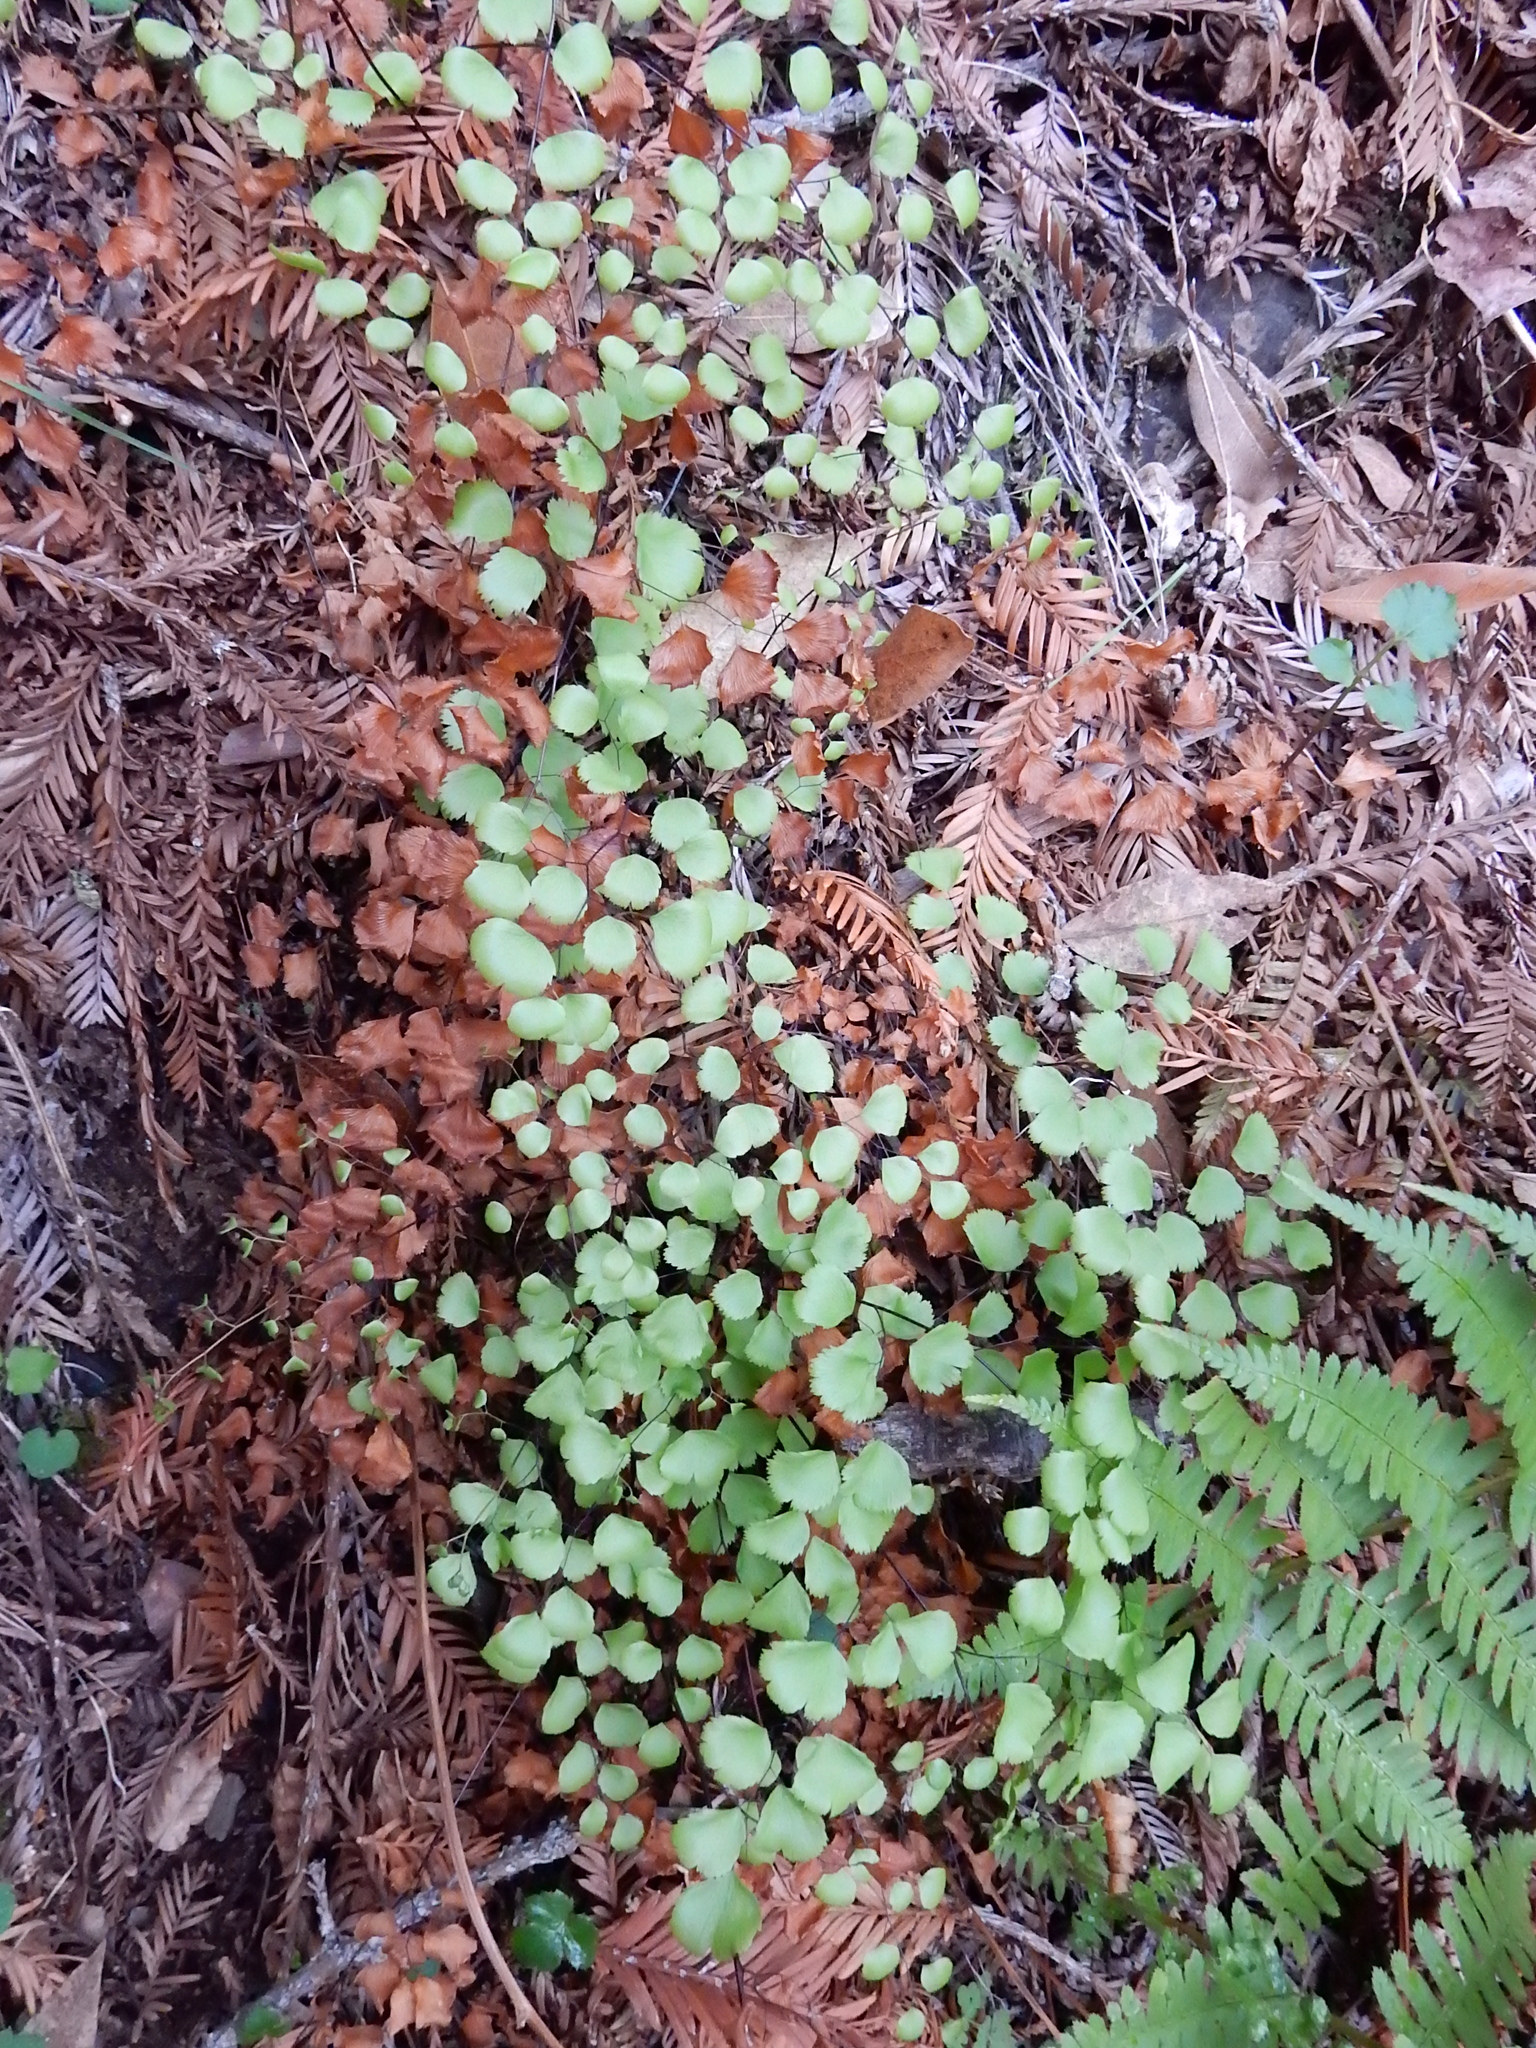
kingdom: Plantae
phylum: Tracheophyta
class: Polypodiopsida
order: Polypodiales
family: Pteridaceae
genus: Adiantum
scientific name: Adiantum jordanii
